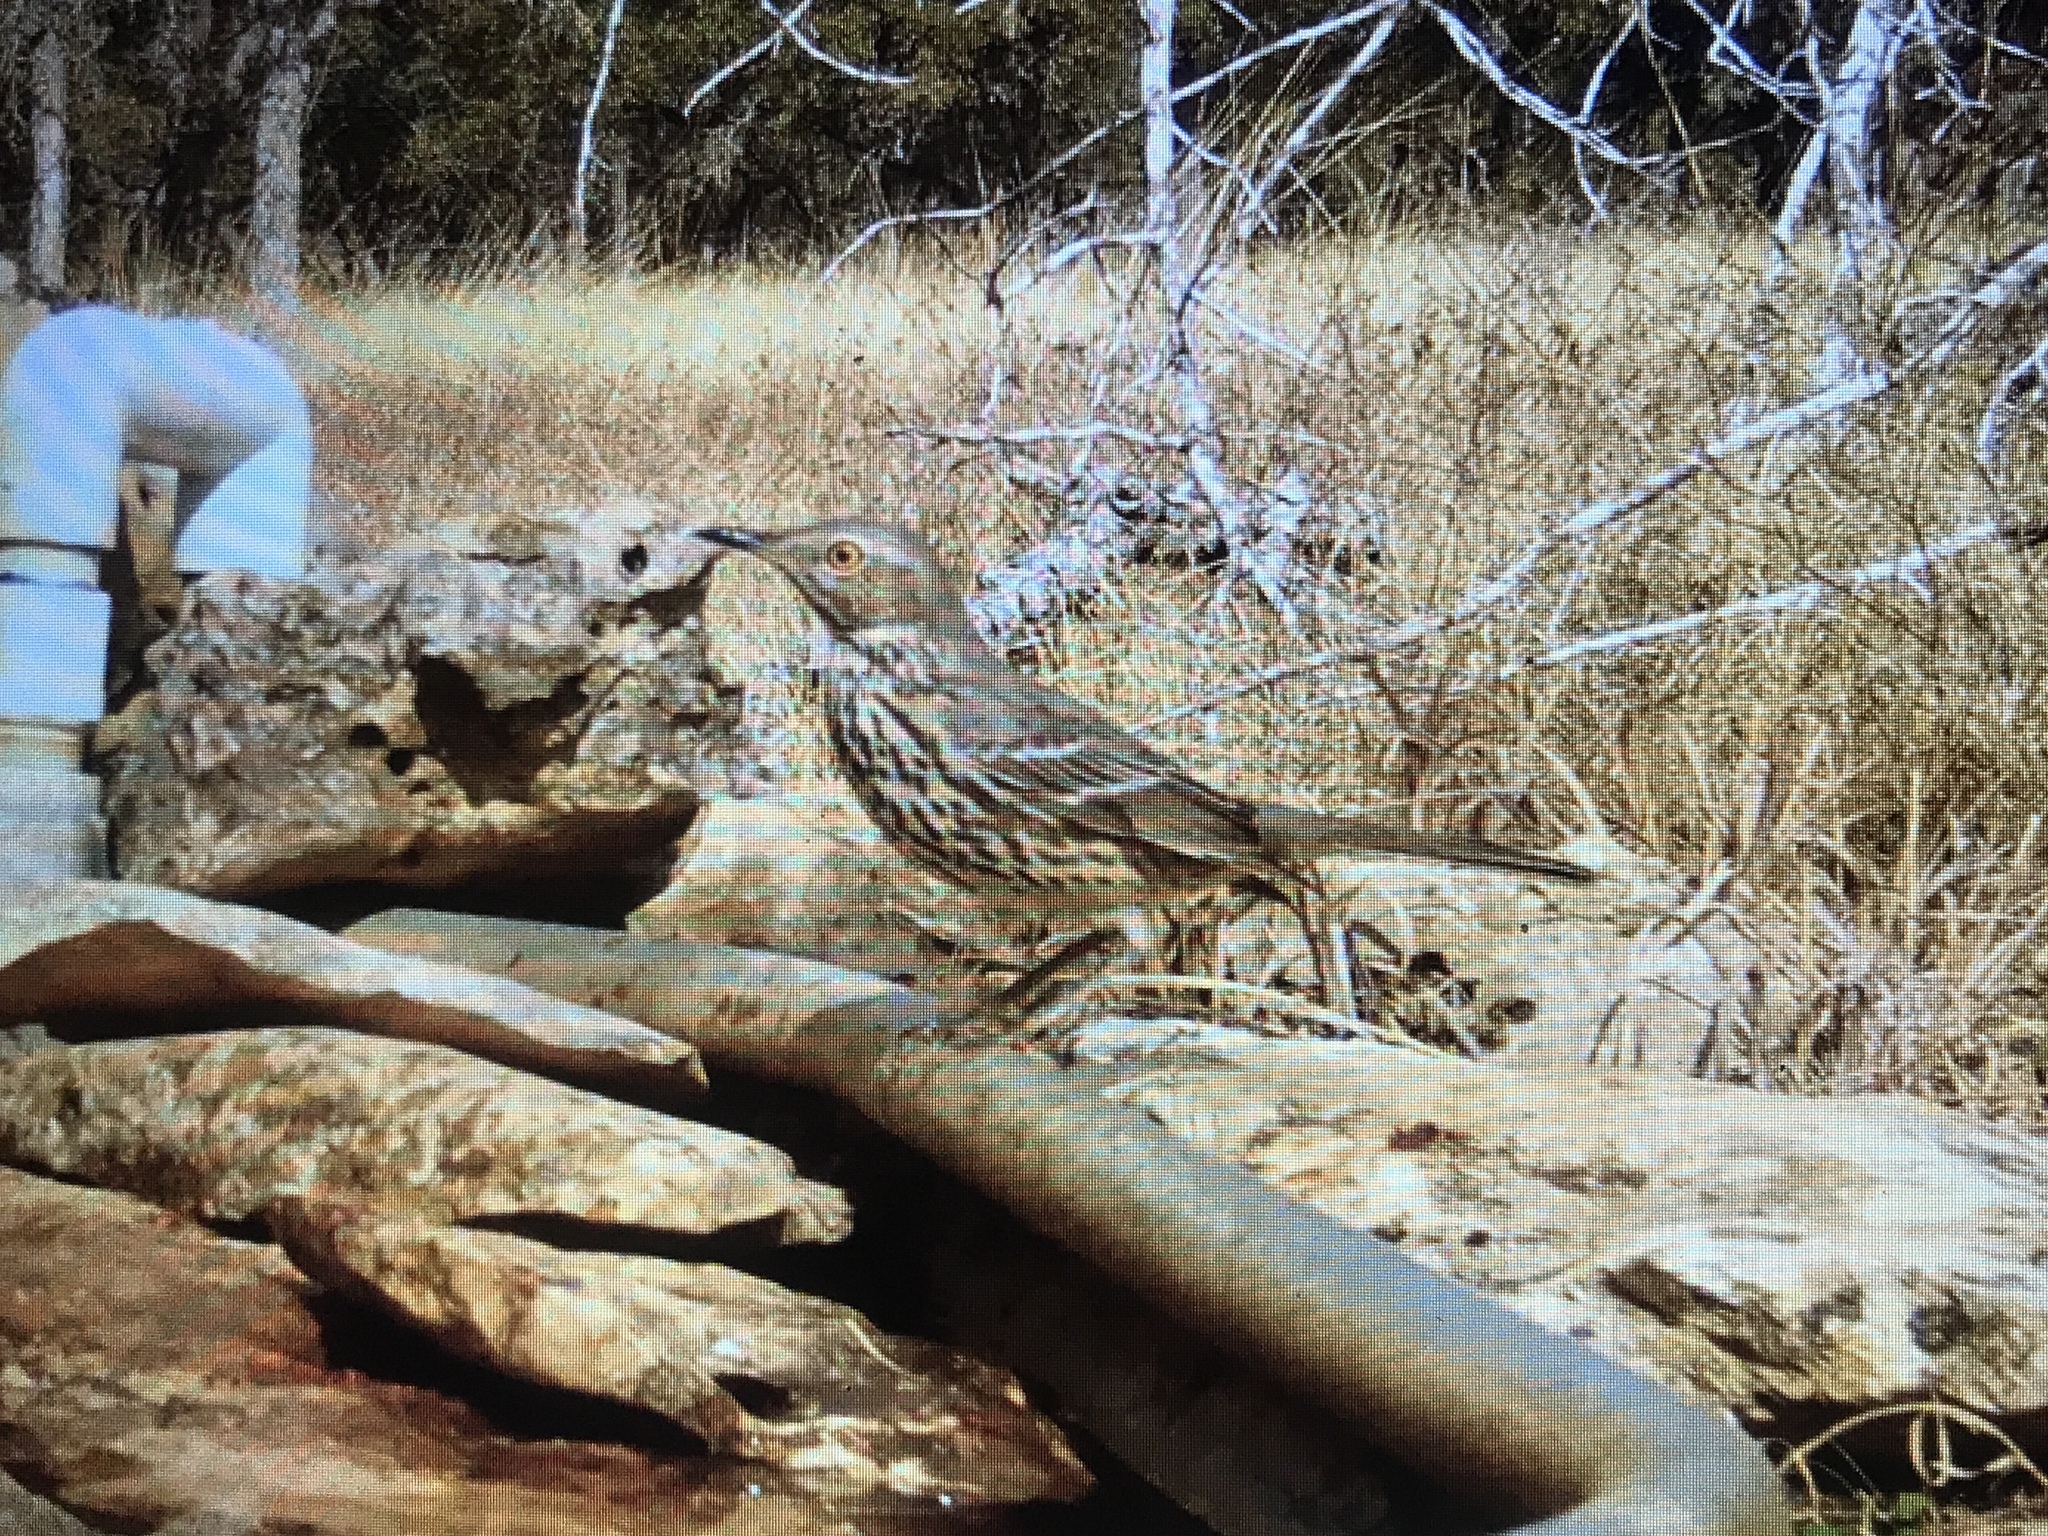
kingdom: Animalia
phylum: Chordata
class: Aves
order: Passeriformes
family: Mimidae
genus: Oreoscoptes
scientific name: Oreoscoptes montanus
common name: Sage thrasher
